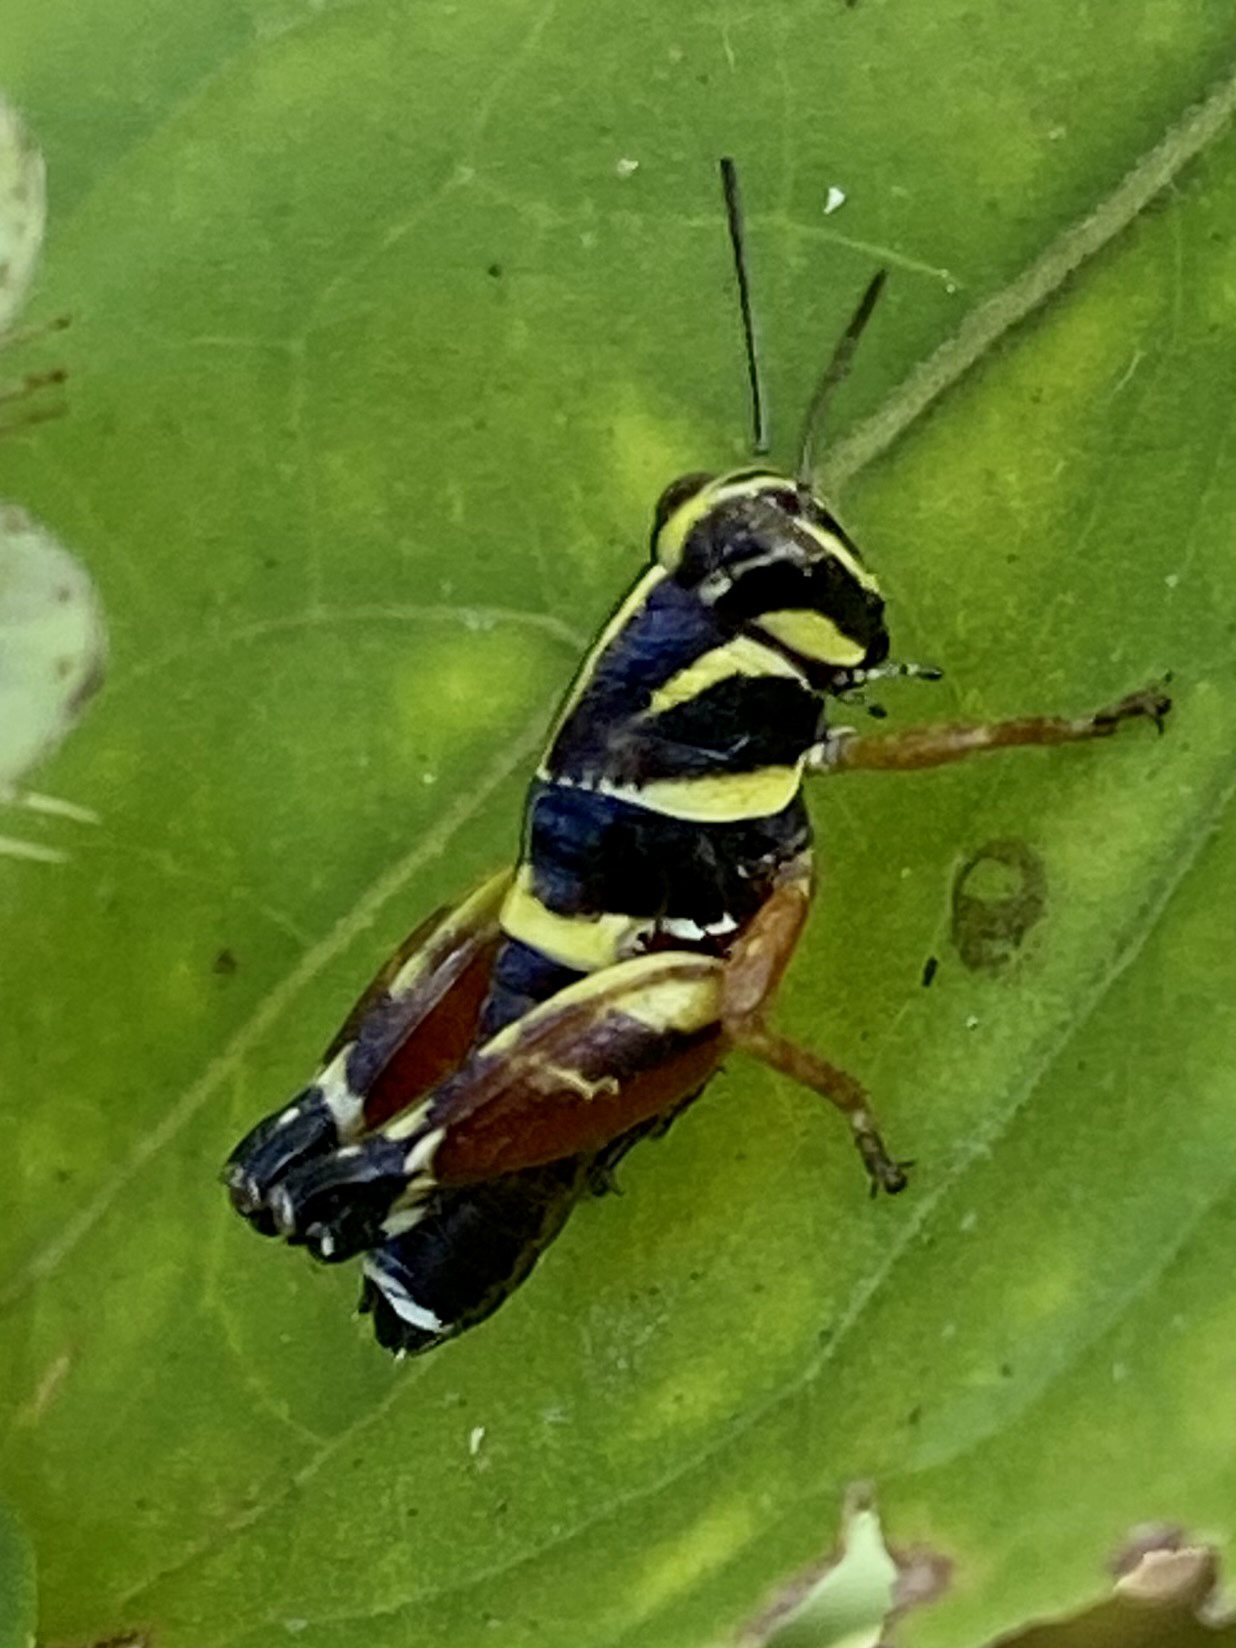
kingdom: Animalia
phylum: Arthropoda
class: Insecta
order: Orthoptera
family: Acrididae
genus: Aidemona
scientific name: Aidemona azteca
